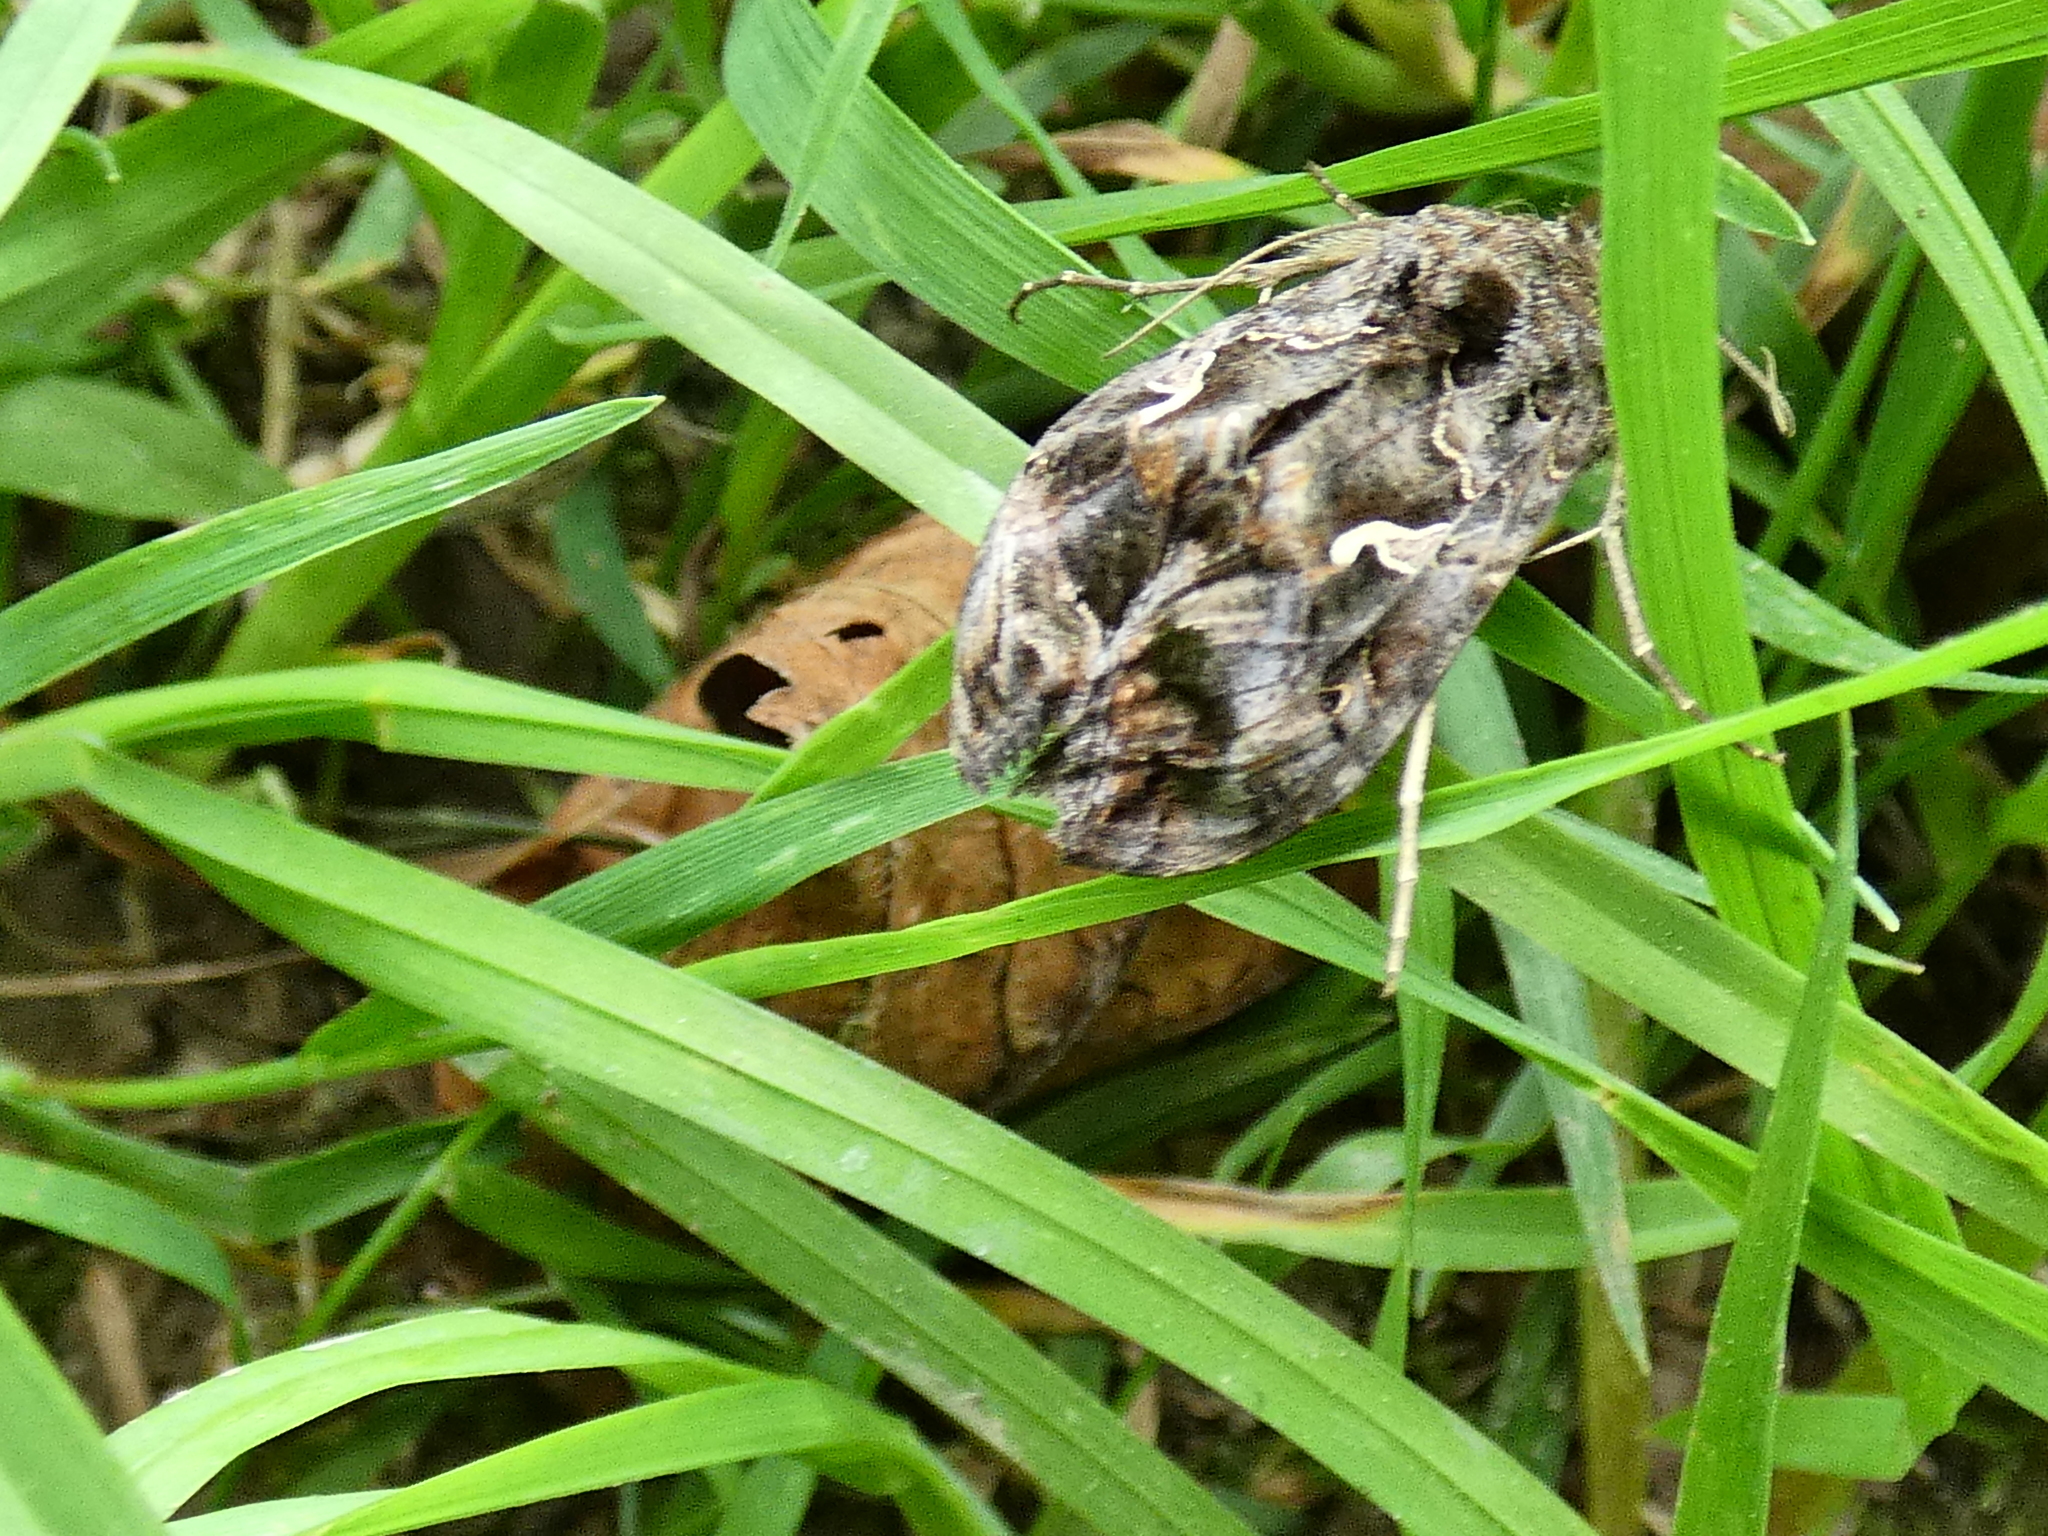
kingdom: Animalia
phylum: Arthropoda
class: Insecta
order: Lepidoptera
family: Noctuidae
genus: Autographa
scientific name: Autographa gamma
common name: Silver y
